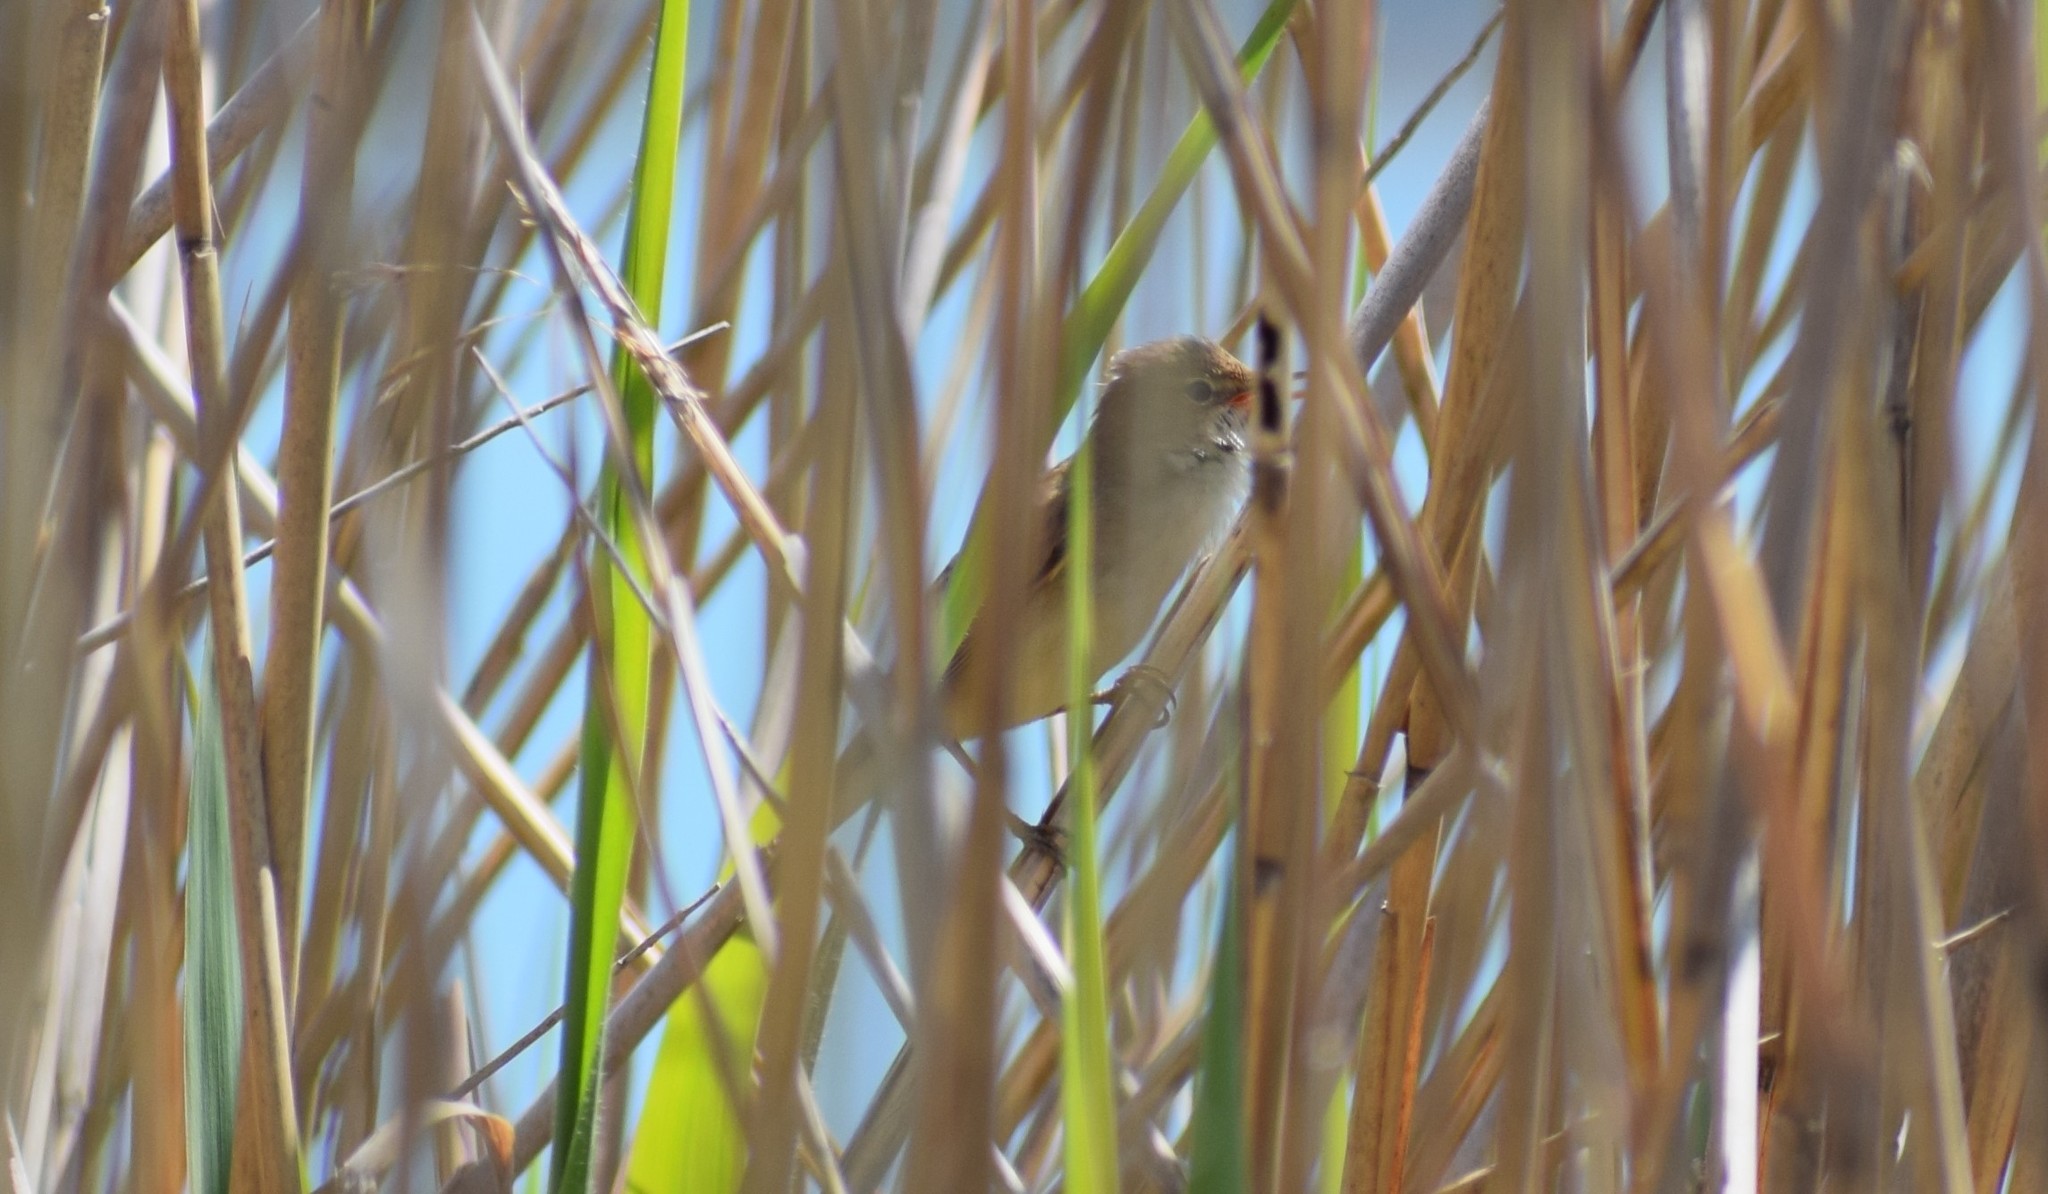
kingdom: Animalia
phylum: Chordata
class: Aves
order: Passeriformes
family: Acrocephalidae
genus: Acrocephalus
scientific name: Acrocephalus scirpaceus
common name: Eurasian reed warbler
